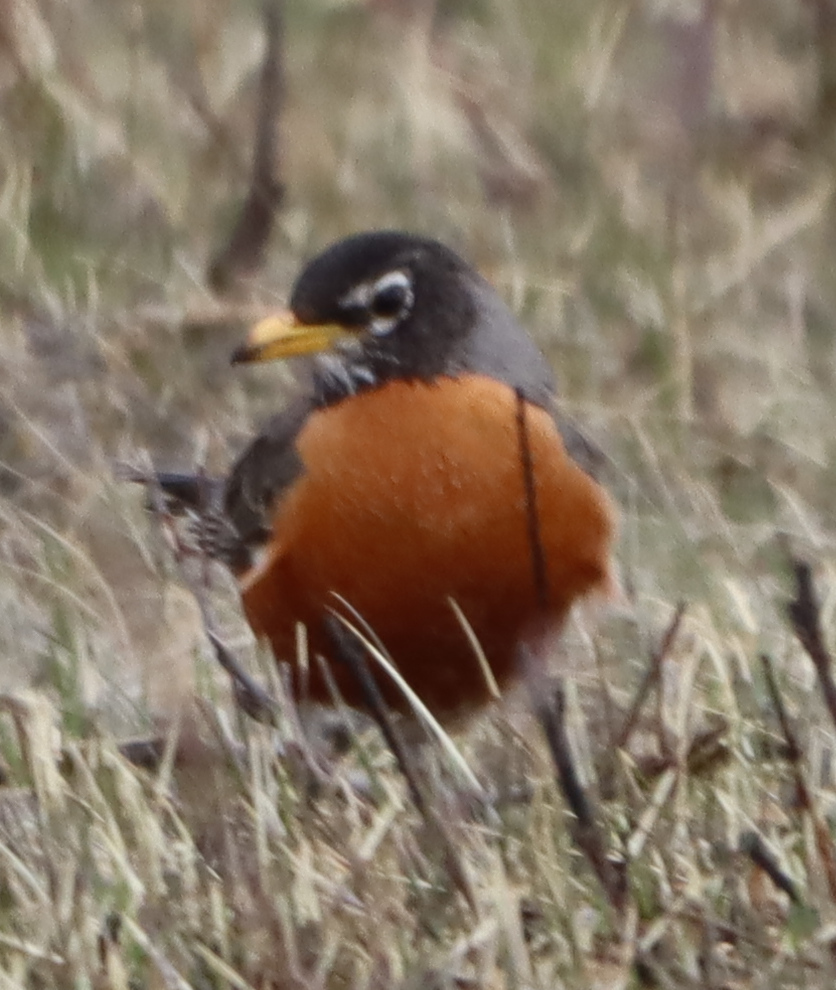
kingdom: Animalia
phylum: Chordata
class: Aves
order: Passeriformes
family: Turdidae
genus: Turdus
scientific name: Turdus migratorius
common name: American robin
